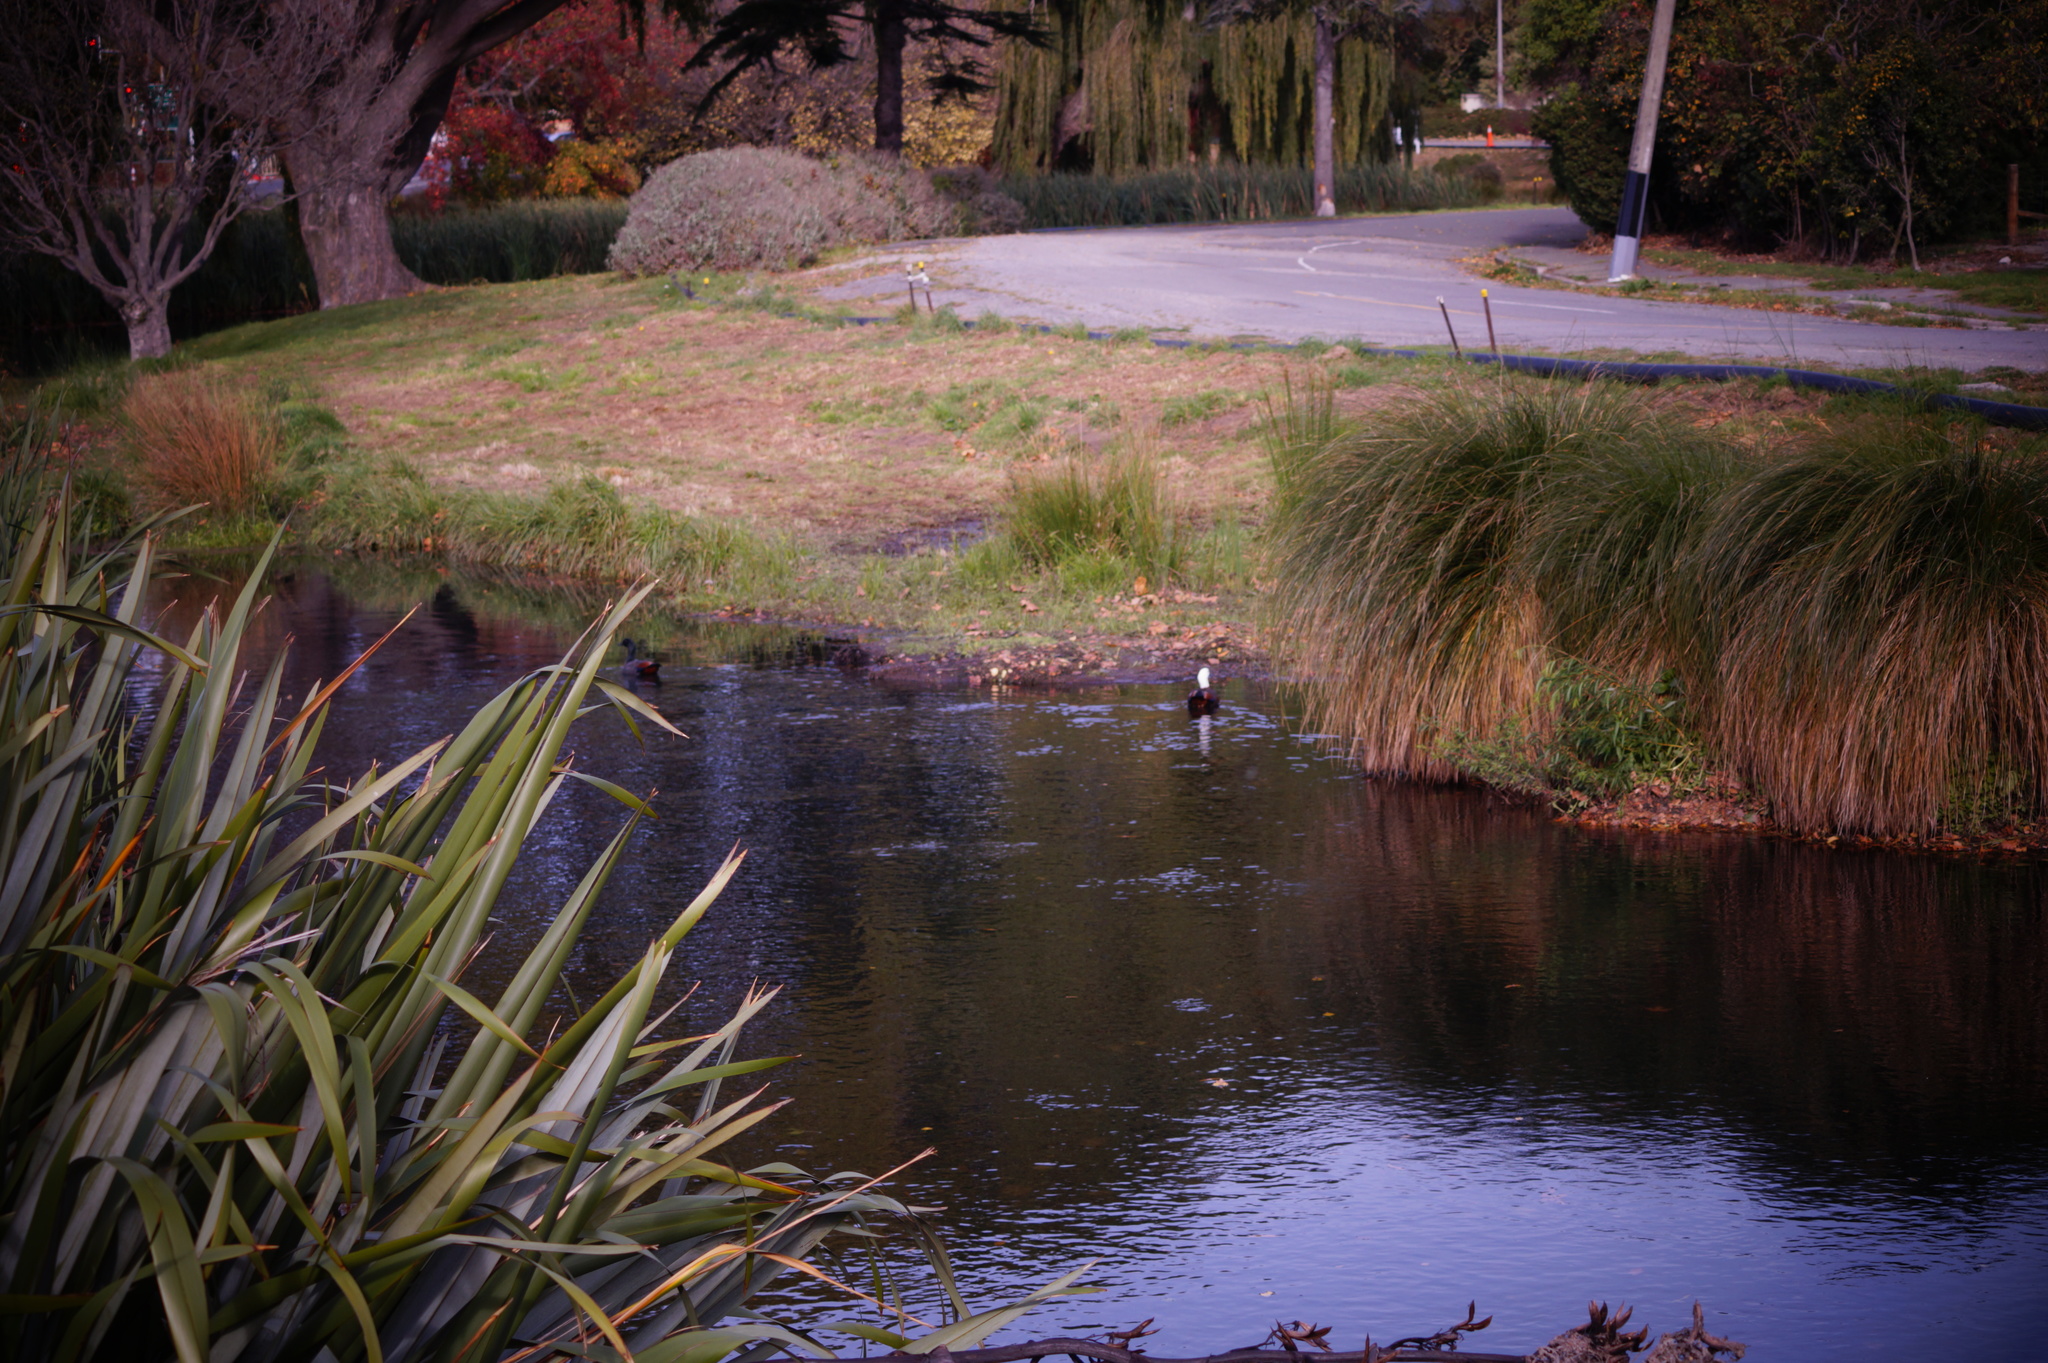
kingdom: Animalia
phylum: Chordata
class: Aves
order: Anseriformes
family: Anatidae
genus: Tadorna
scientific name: Tadorna variegata
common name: Paradise shelduck
